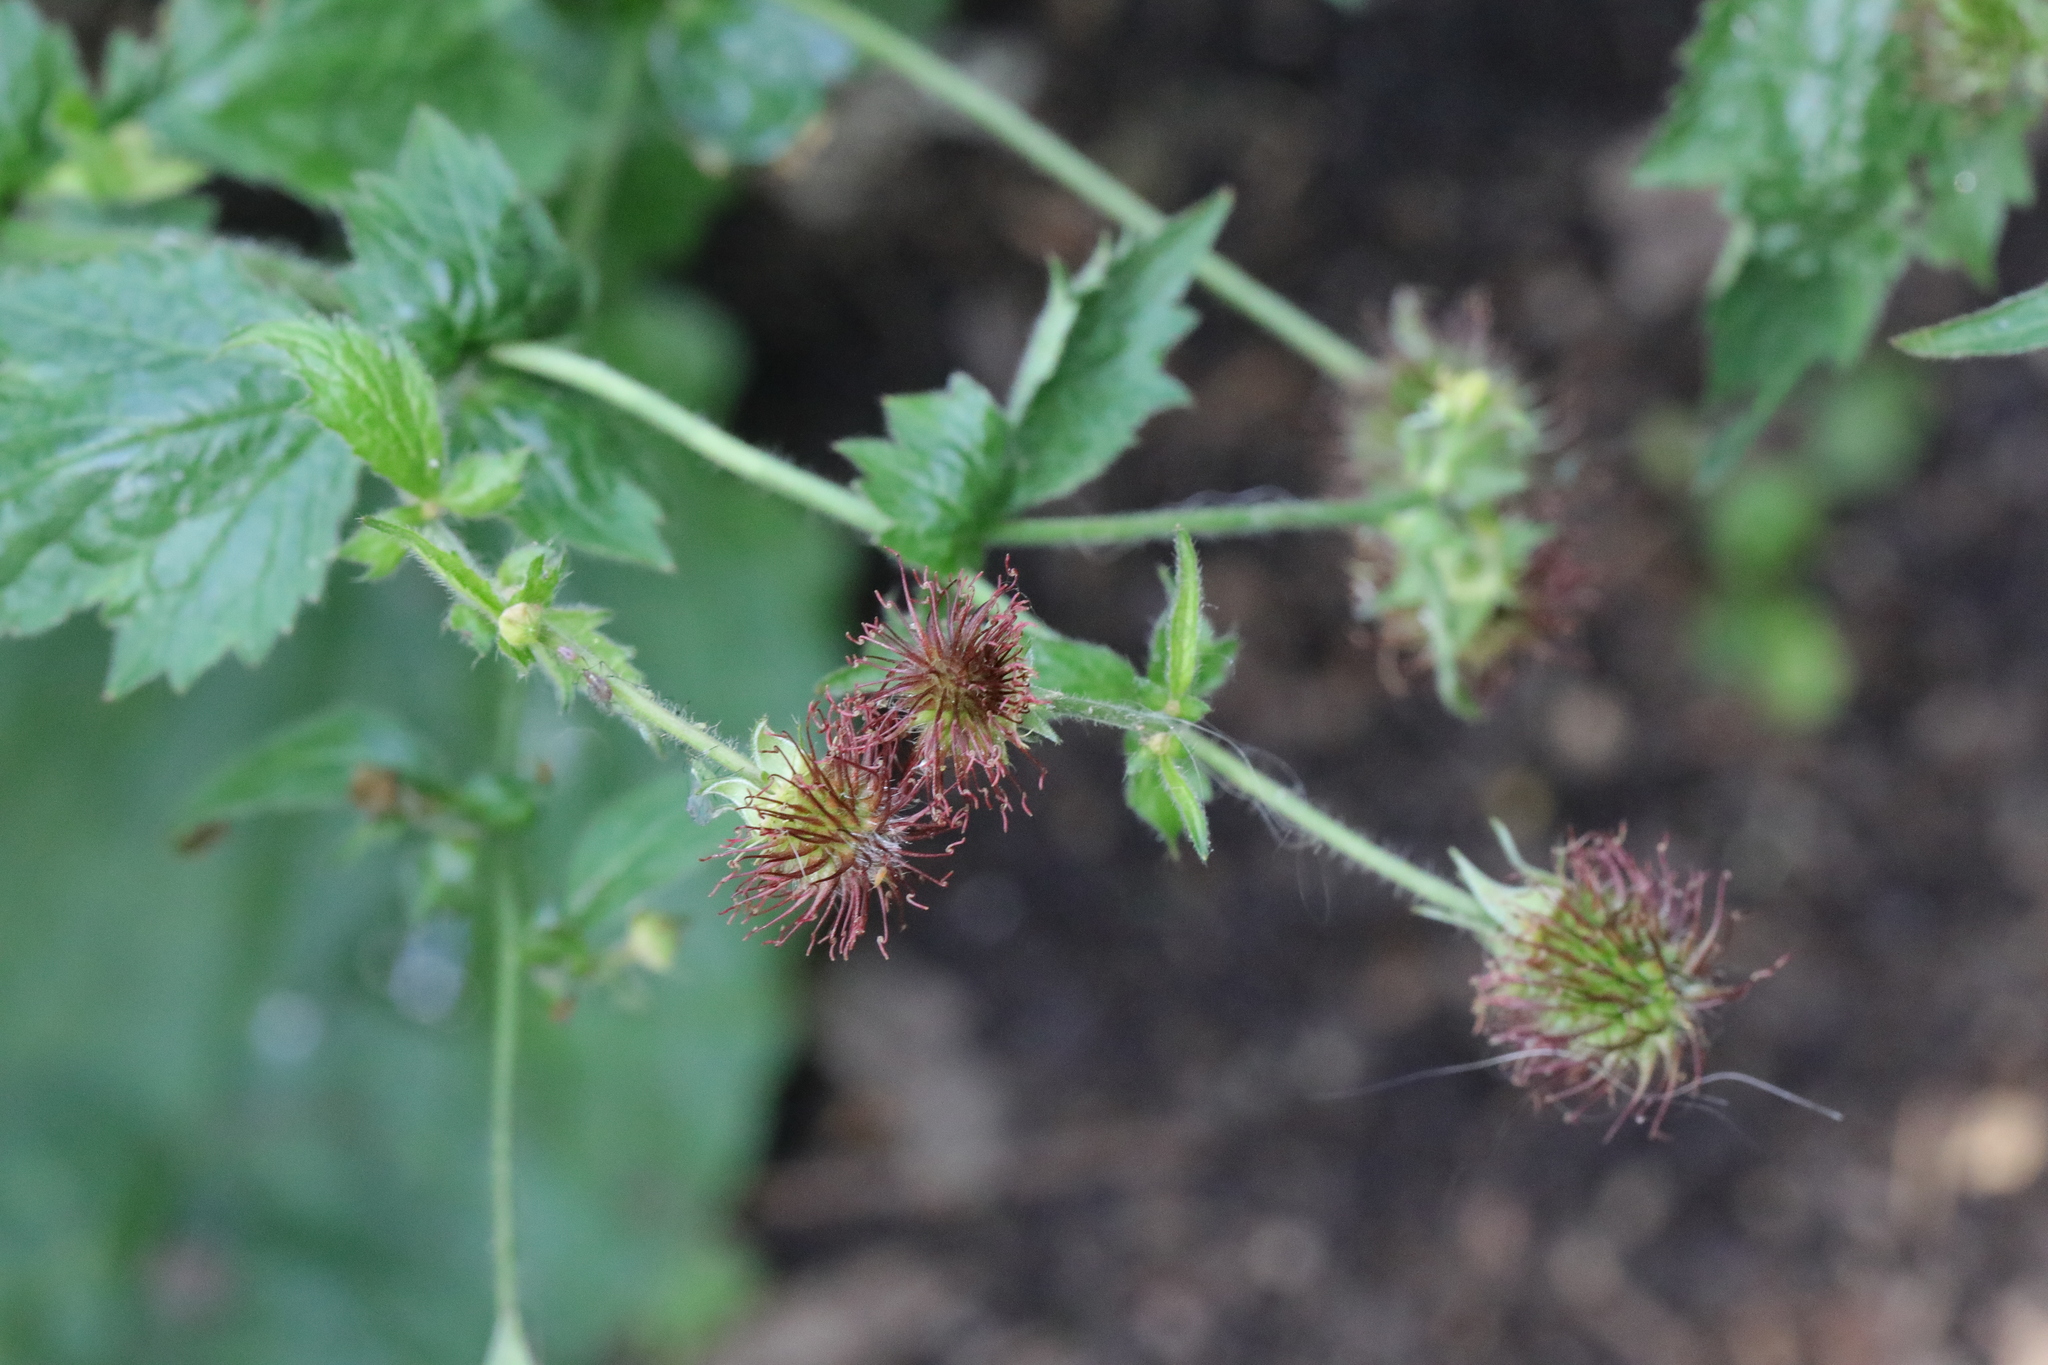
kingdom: Plantae
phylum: Tracheophyta
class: Magnoliopsida
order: Rosales
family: Rosaceae
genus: Geum
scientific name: Geum urbanum
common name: Wood avens
